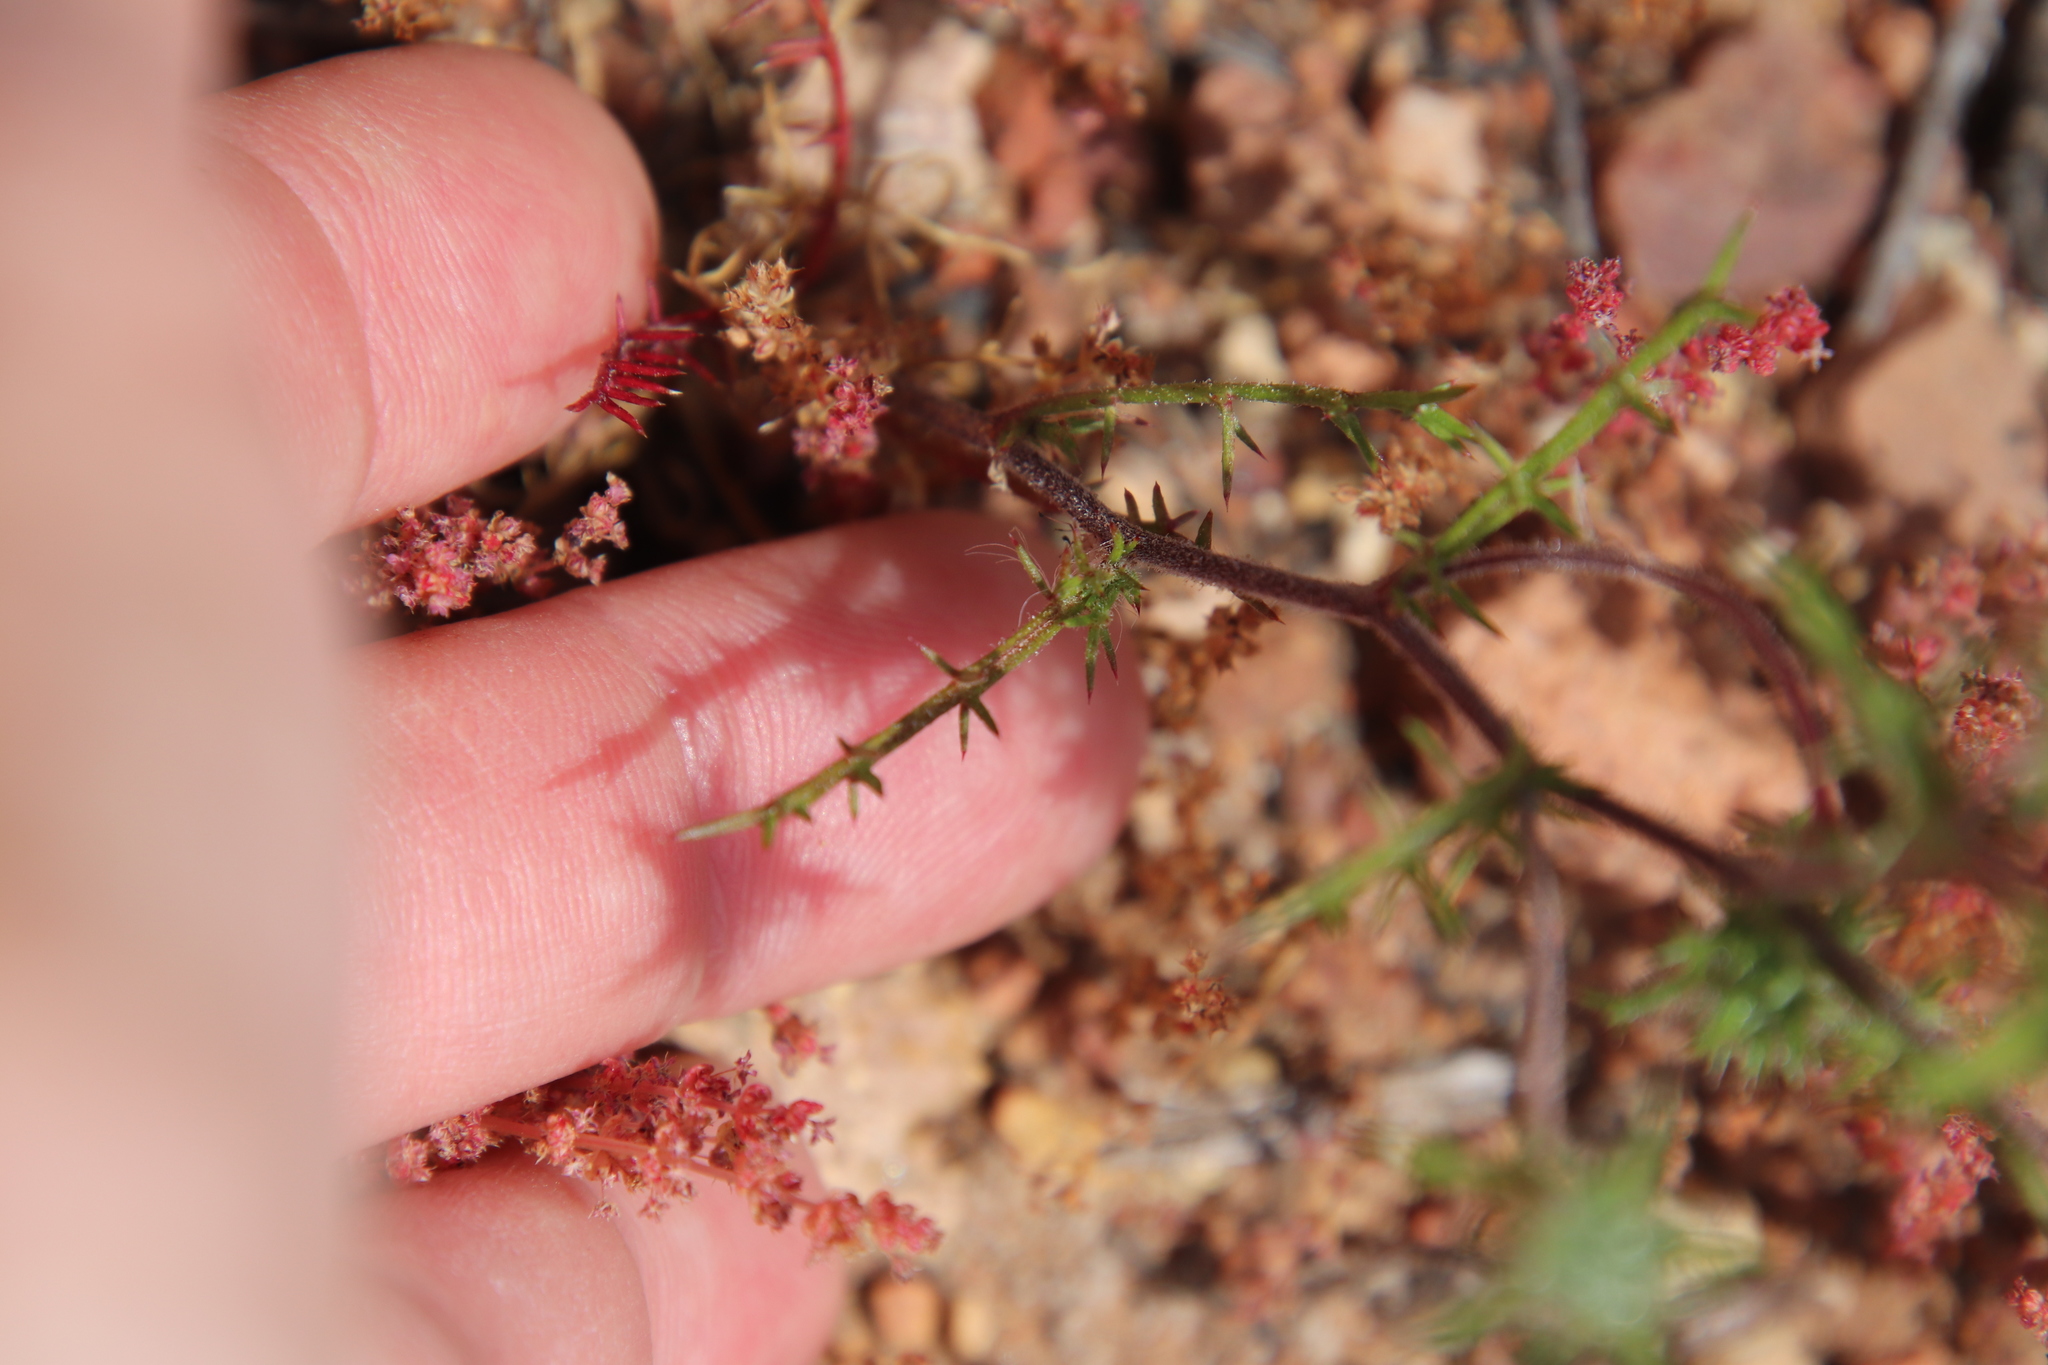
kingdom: Plantae
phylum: Tracheophyta
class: Magnoliopsida
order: Ericales
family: Polemoniaceae
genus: Navarretia
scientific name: Navarretia hamata
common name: Hooked navarretia
